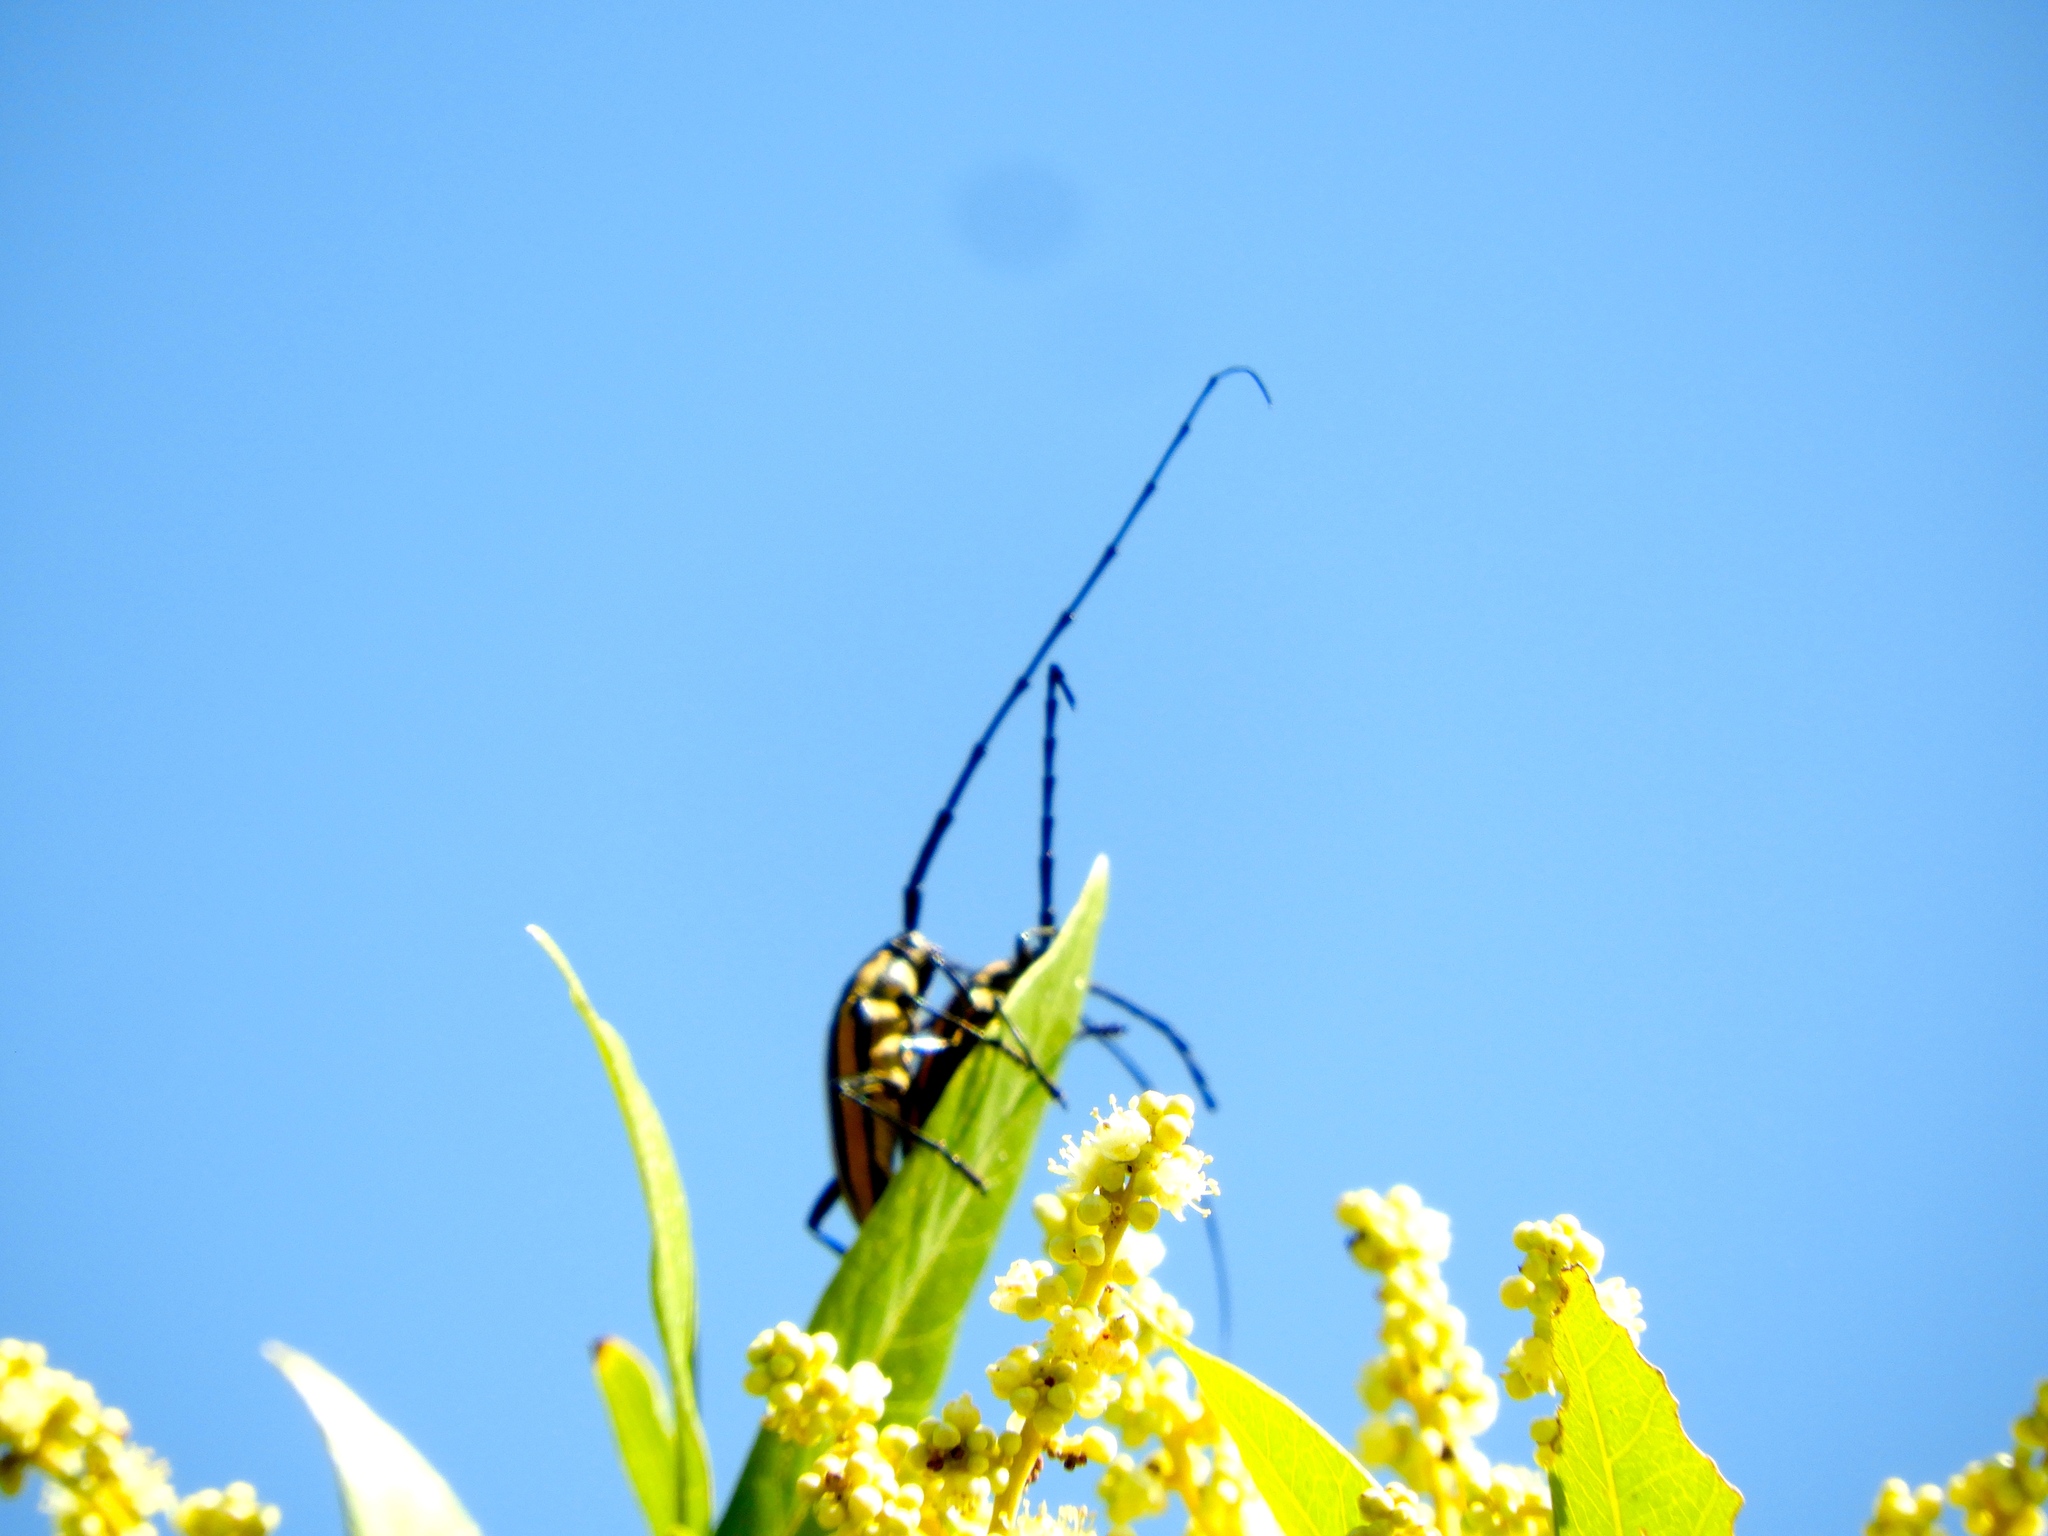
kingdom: Animalia
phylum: Arthropoda
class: Insecta
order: Coleoptera
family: Cerambycidae
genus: Sphaenothecus
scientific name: Sphaenothecus trilineatus
